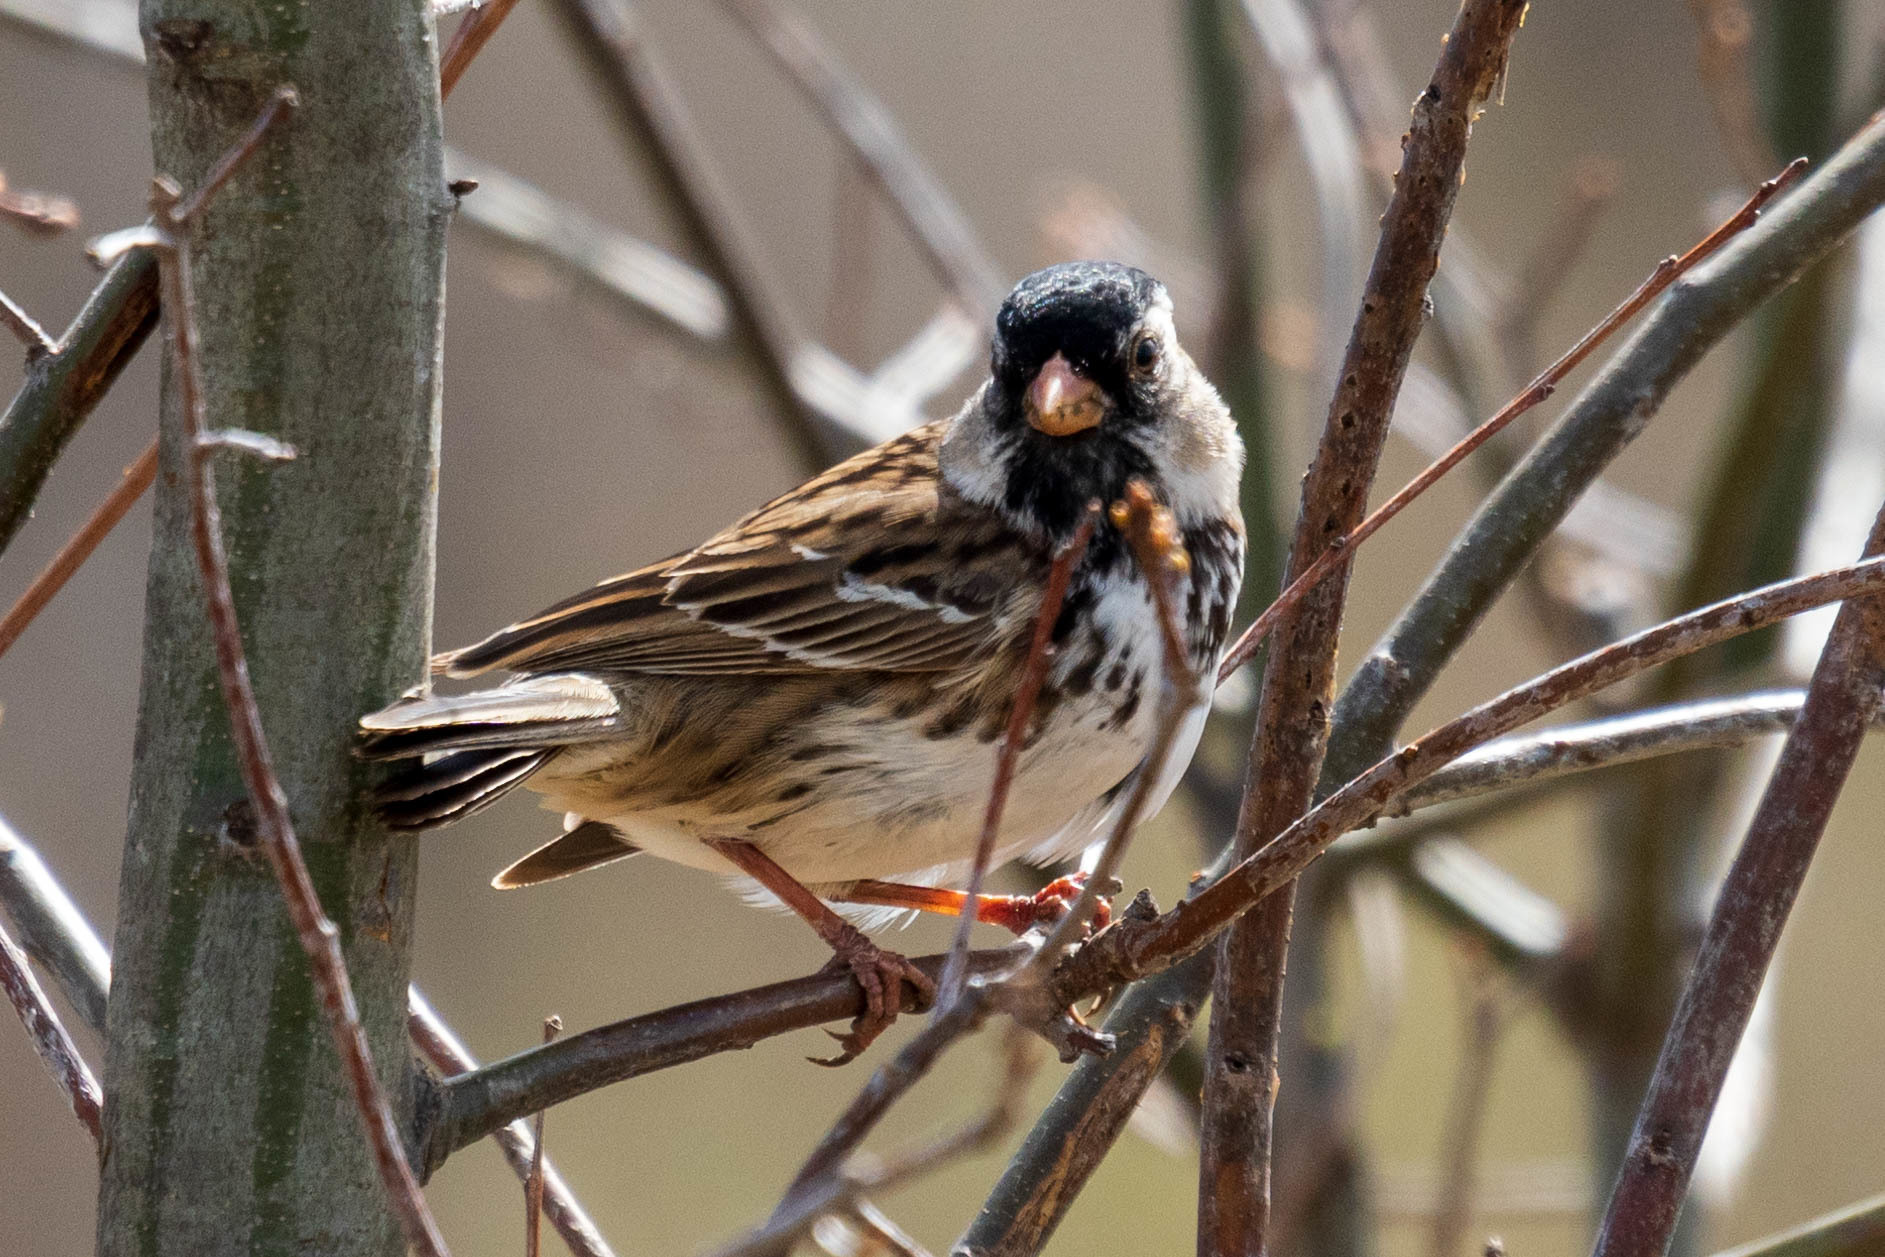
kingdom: Animalia
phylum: Chordata
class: Aves
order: Passeriformes
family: Passerellidae
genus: Zonotrichia
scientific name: Zonotrichia querula
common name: Harris's sparrow
